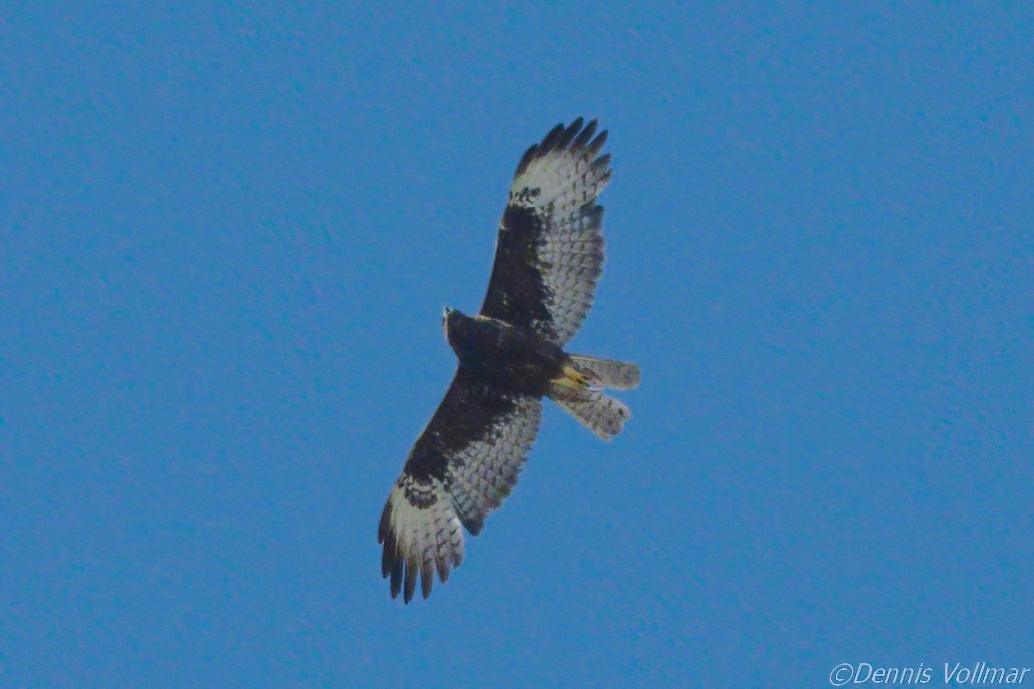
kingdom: Animalia
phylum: Chordata
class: Aves
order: Accipitriformes
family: Accipitridae
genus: Buteo
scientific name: Buteo brachyurus
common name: Short-tailed hawk
